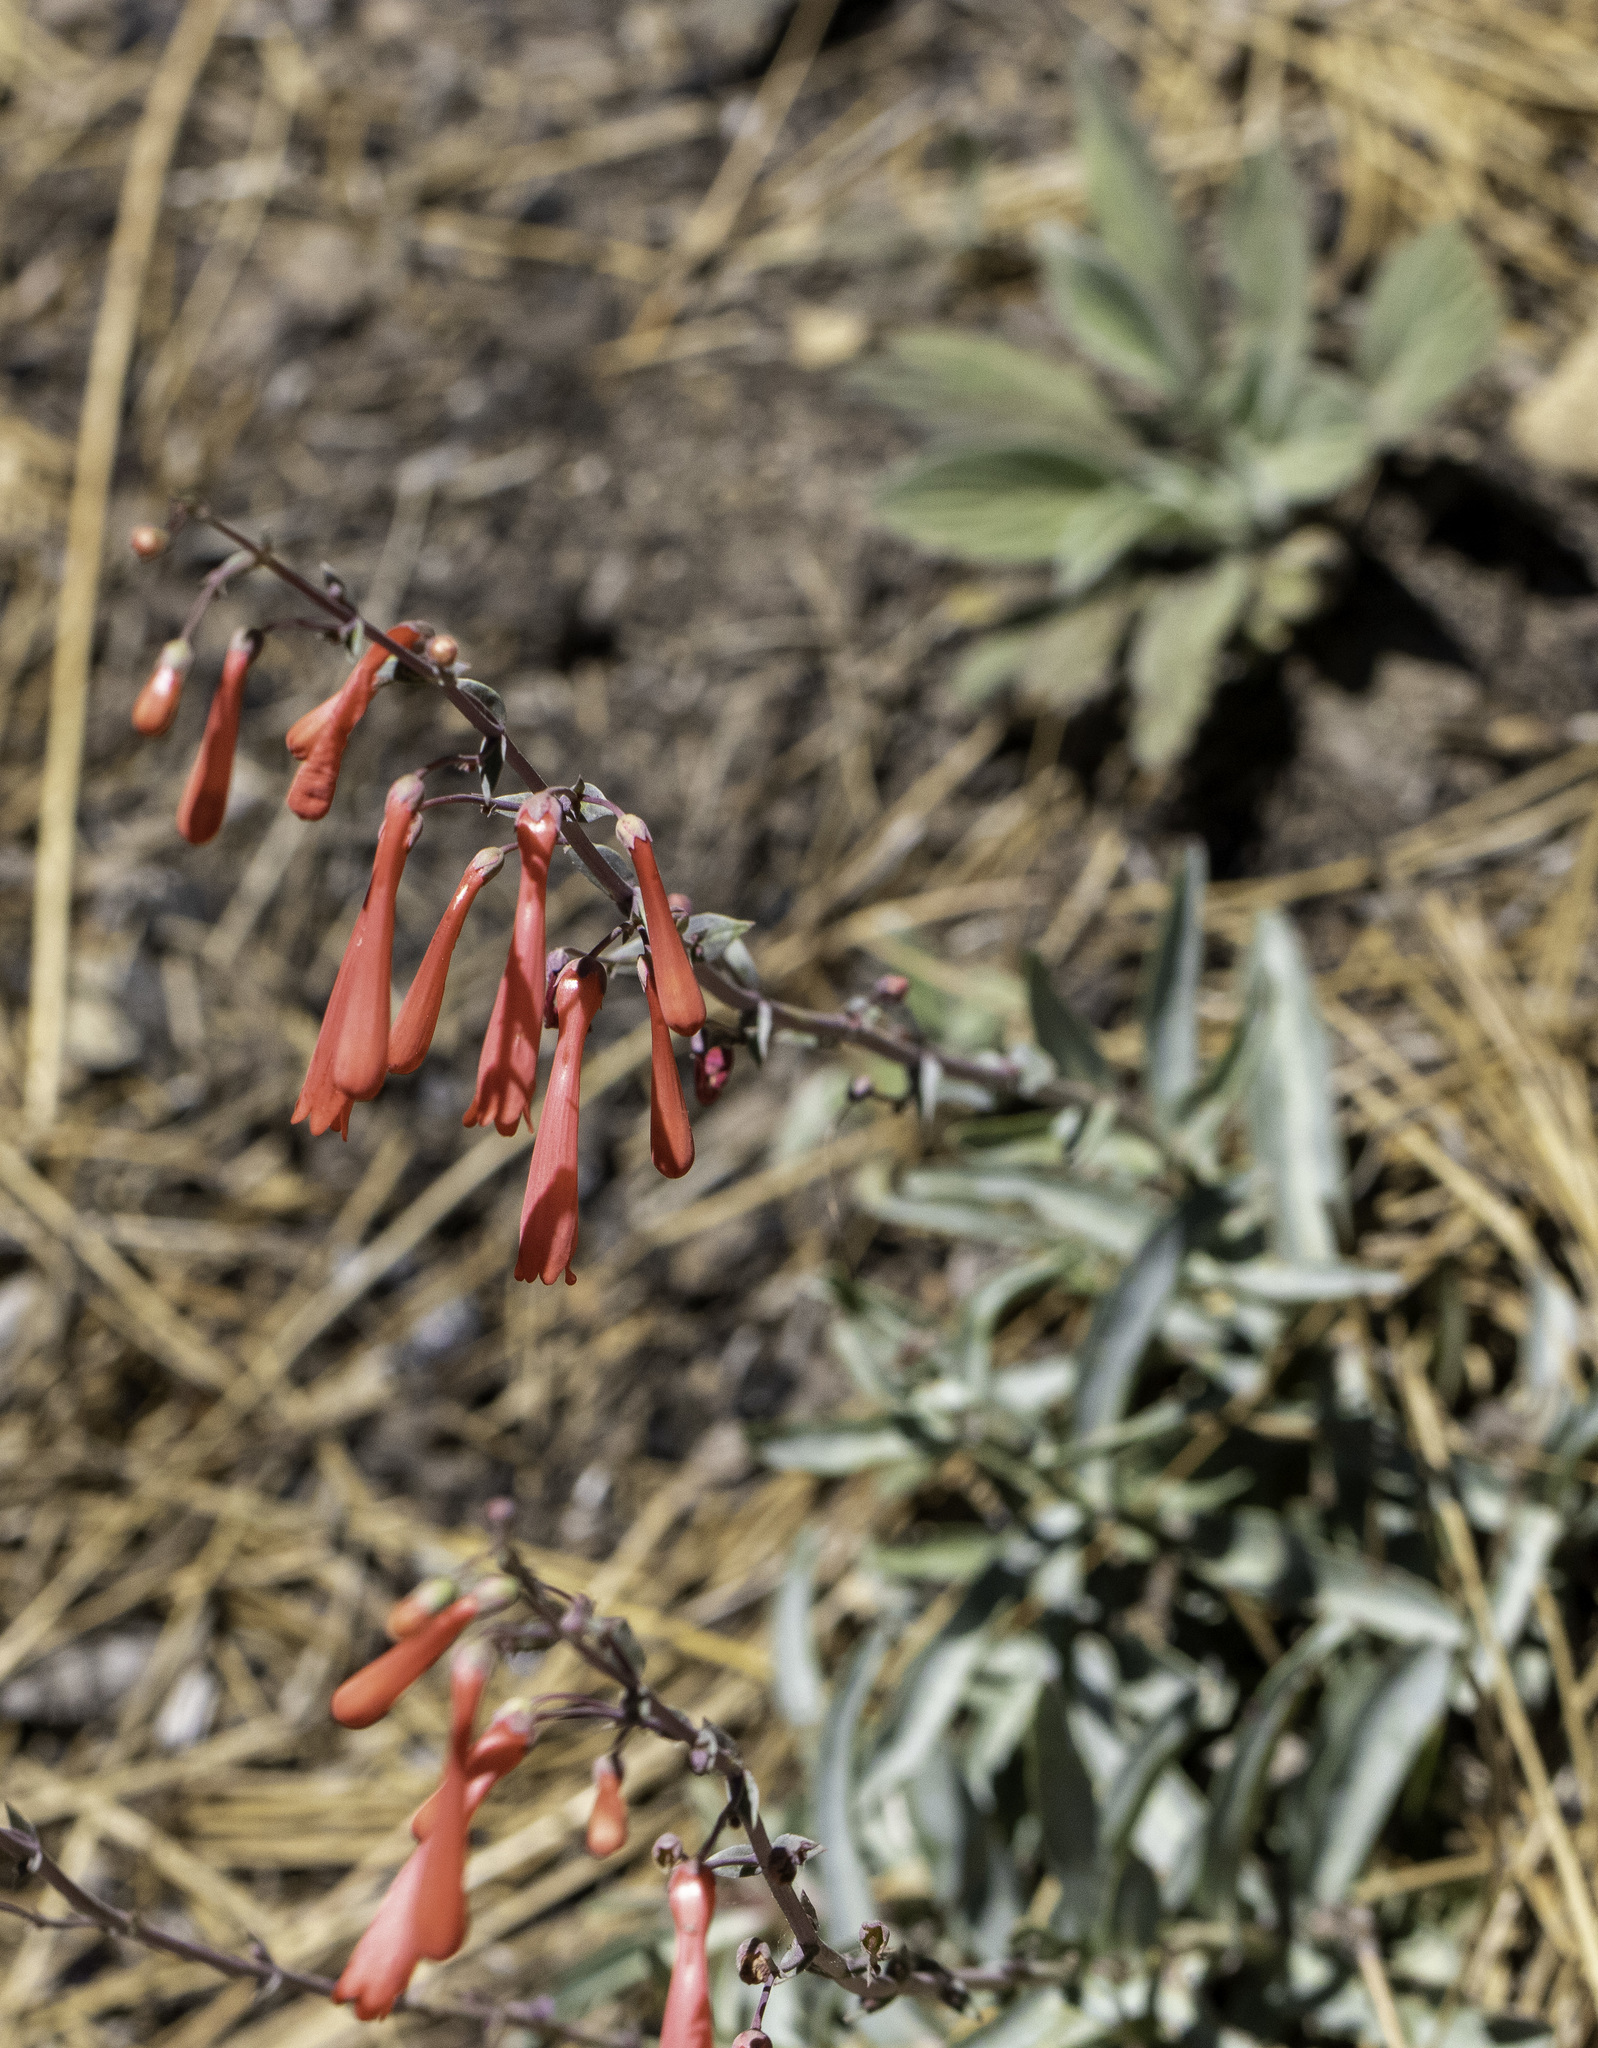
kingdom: Plantae
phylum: Tracheophyta
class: Magnoliopsida
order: Lamiales
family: Plantaginaceae
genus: Penstemon
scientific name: Penstemon centranthifolius
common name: Scarlet bugler
